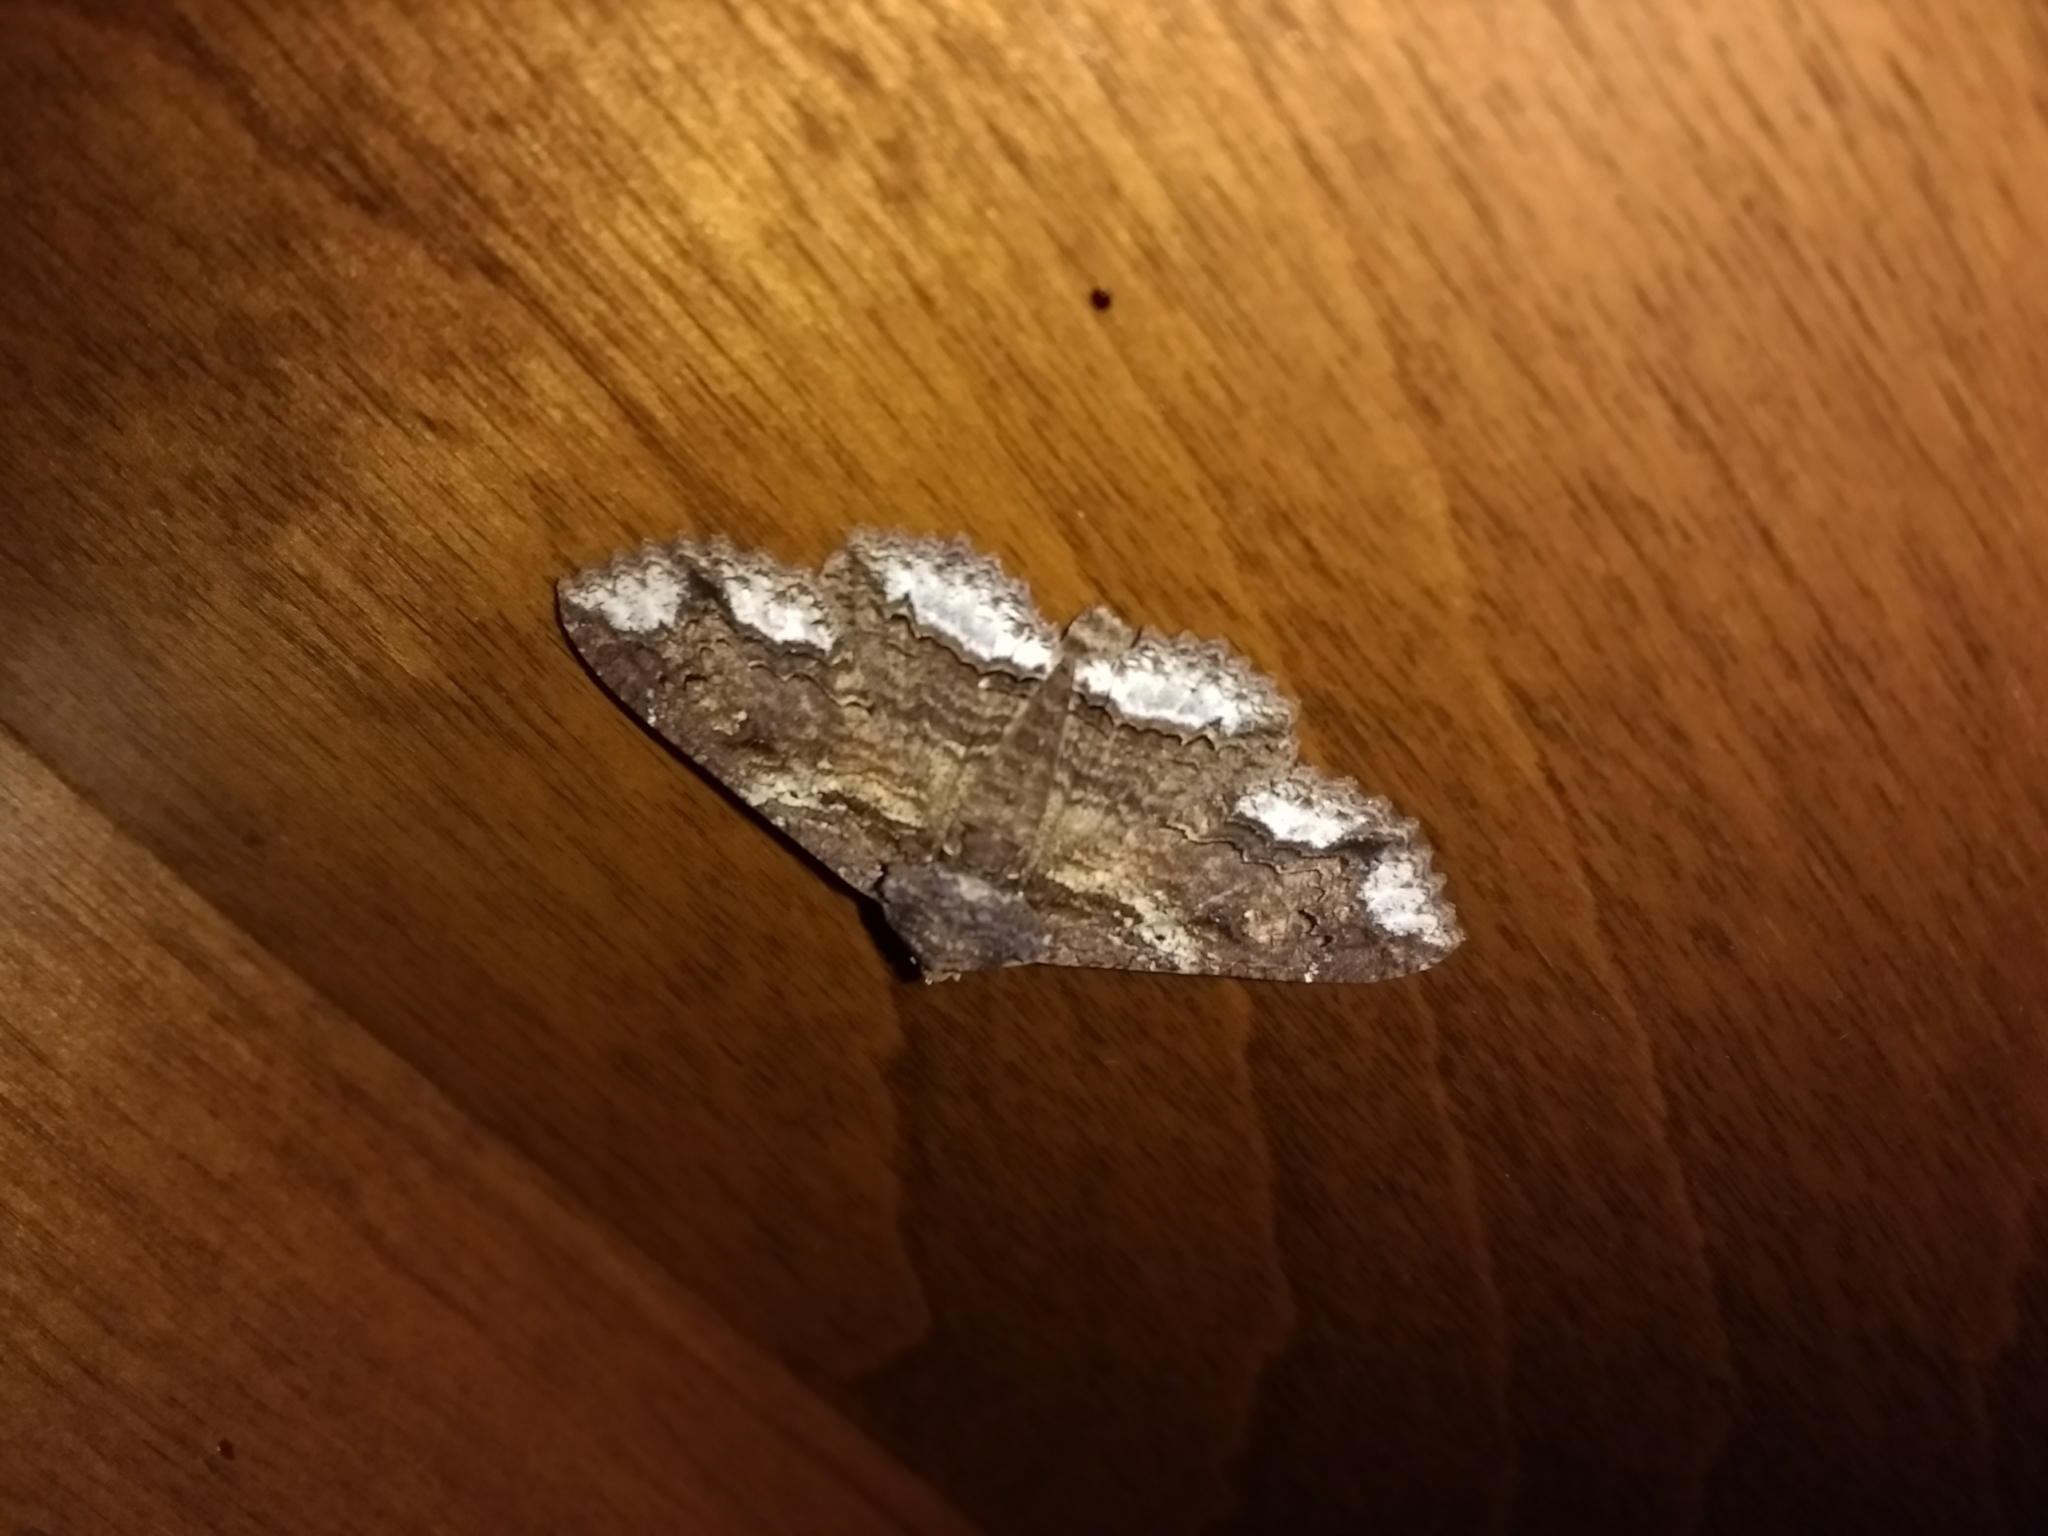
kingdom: Animalia
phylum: Arthropoda
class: Insecta
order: Lepidoptera
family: Erebidae
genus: Zale
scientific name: Zale lunata
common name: Lunate zale moth
